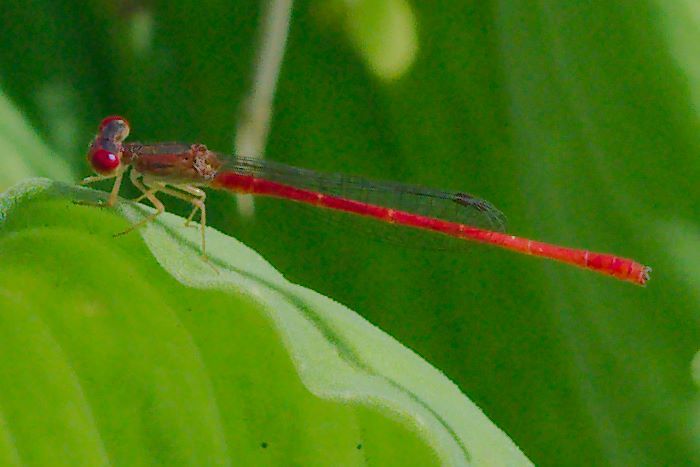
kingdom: Animalia
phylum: Arthropoda
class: Insecta
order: Odonata
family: Coenagrionidae
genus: Telebasis
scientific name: Telebasis byersi
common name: Duckweed firetail
